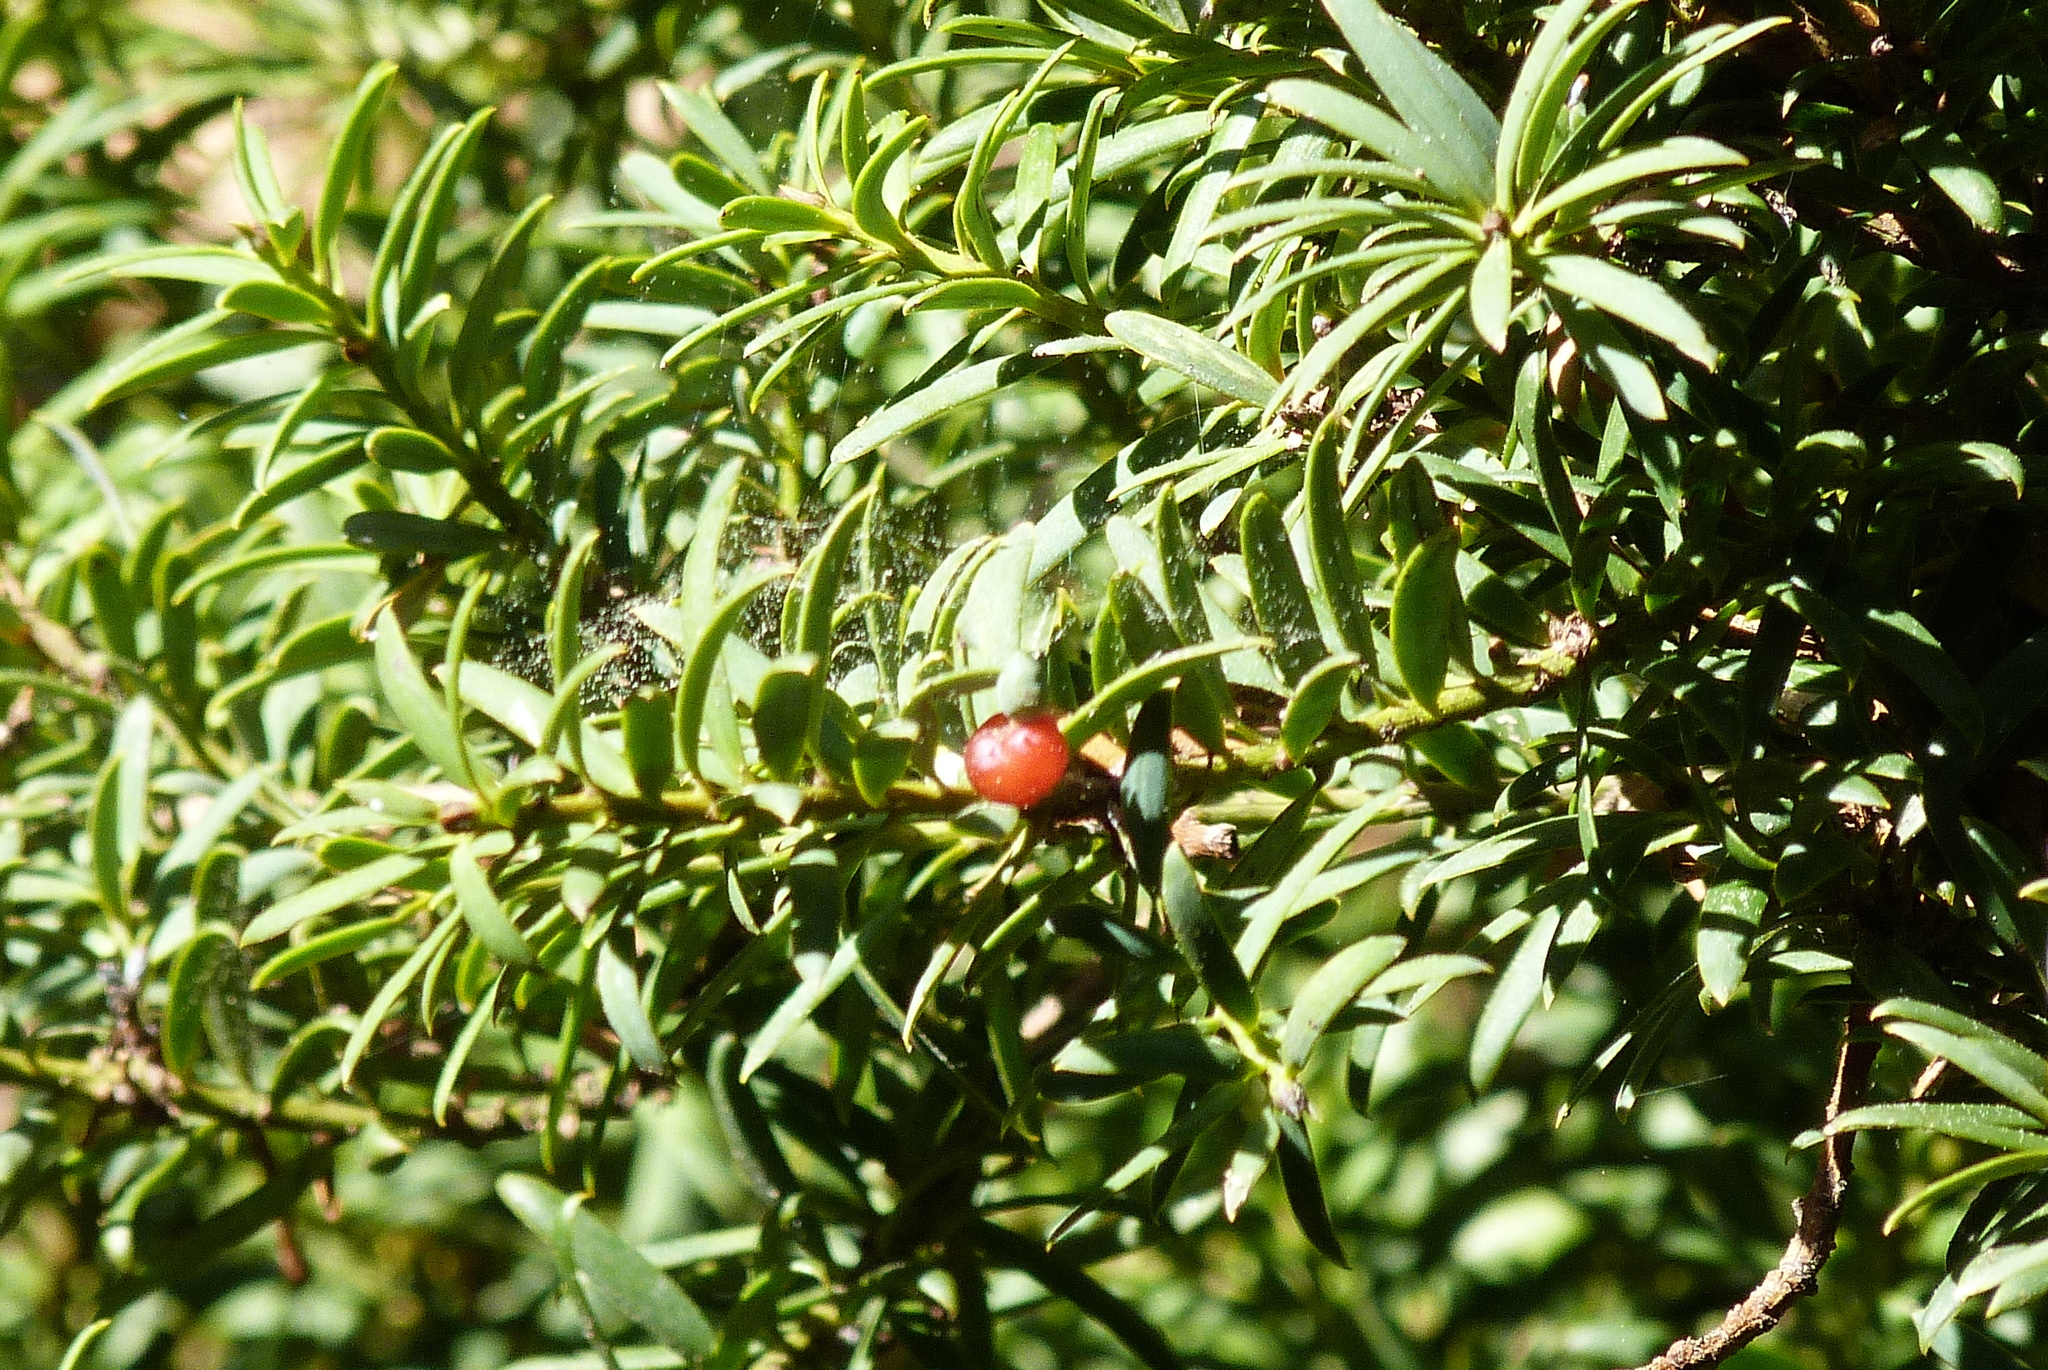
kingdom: Plantae
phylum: Tracheophyta
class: Pinopsida
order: Pinales
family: Podocarpaceae
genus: Podocarpus
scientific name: Podocarpus totara
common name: Totara
